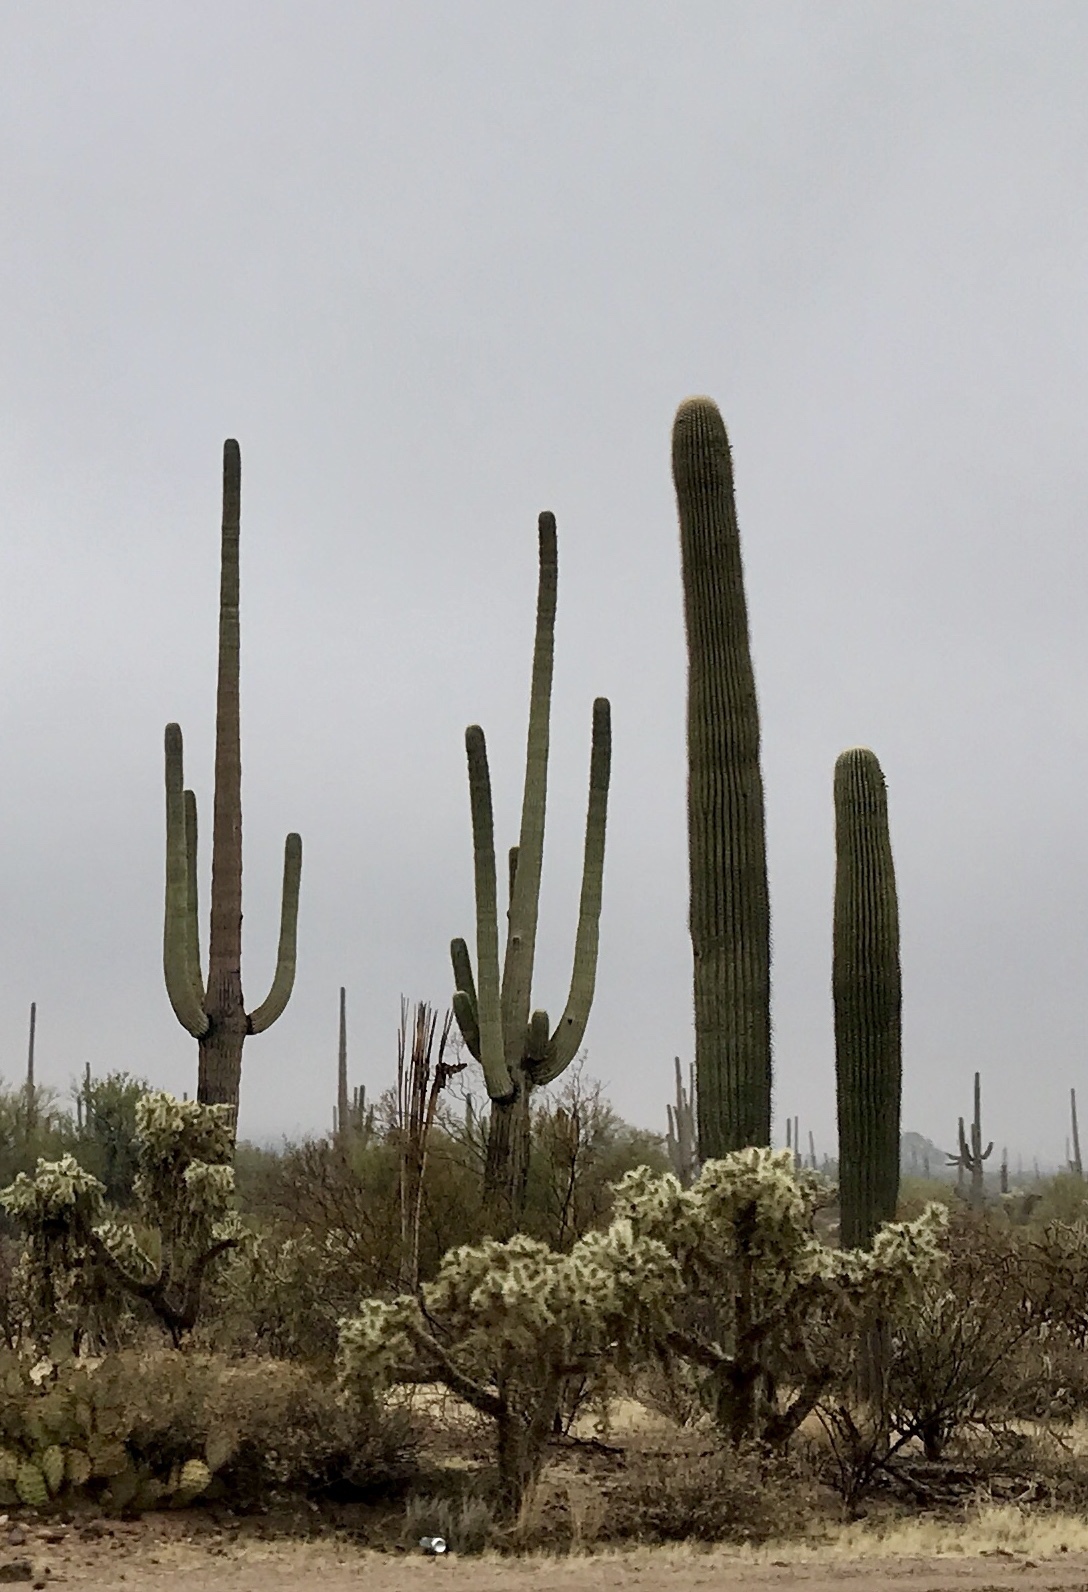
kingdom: Plantae
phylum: Tracheophyta
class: Magnoliopsida
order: Caryophyllales
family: Cactaceae
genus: Carnegiea
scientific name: Carnegiea gigantea
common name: Saguaro
